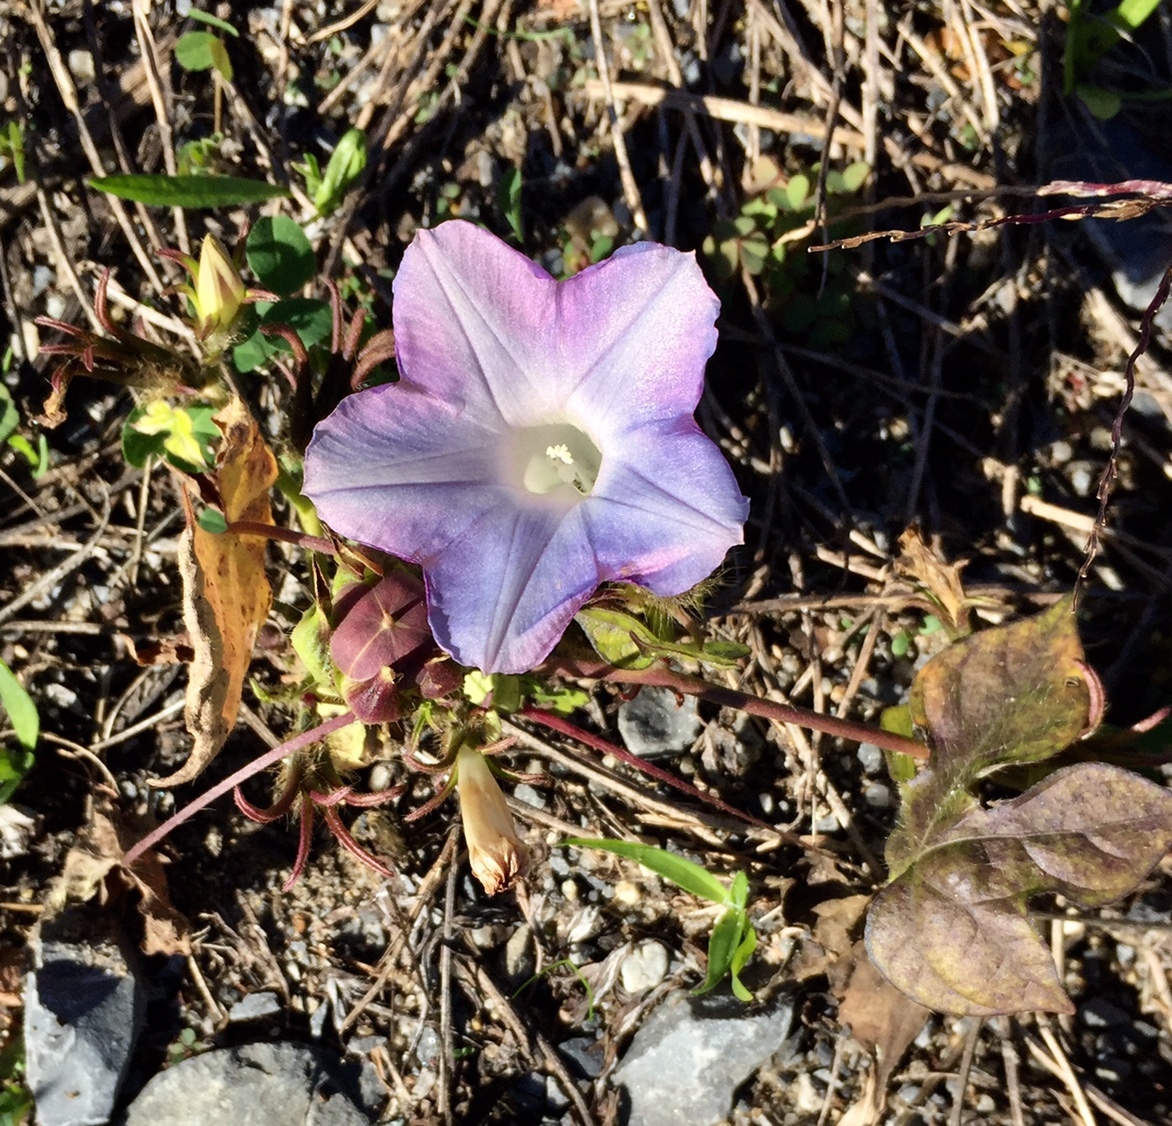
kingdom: Plantae
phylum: Tracheophyta
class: Magnoliopsida
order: Solanales
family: Convolvulaceae
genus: Ipomoea
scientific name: Ipomoea hederacea
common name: Ivy-leaved morning-glory
